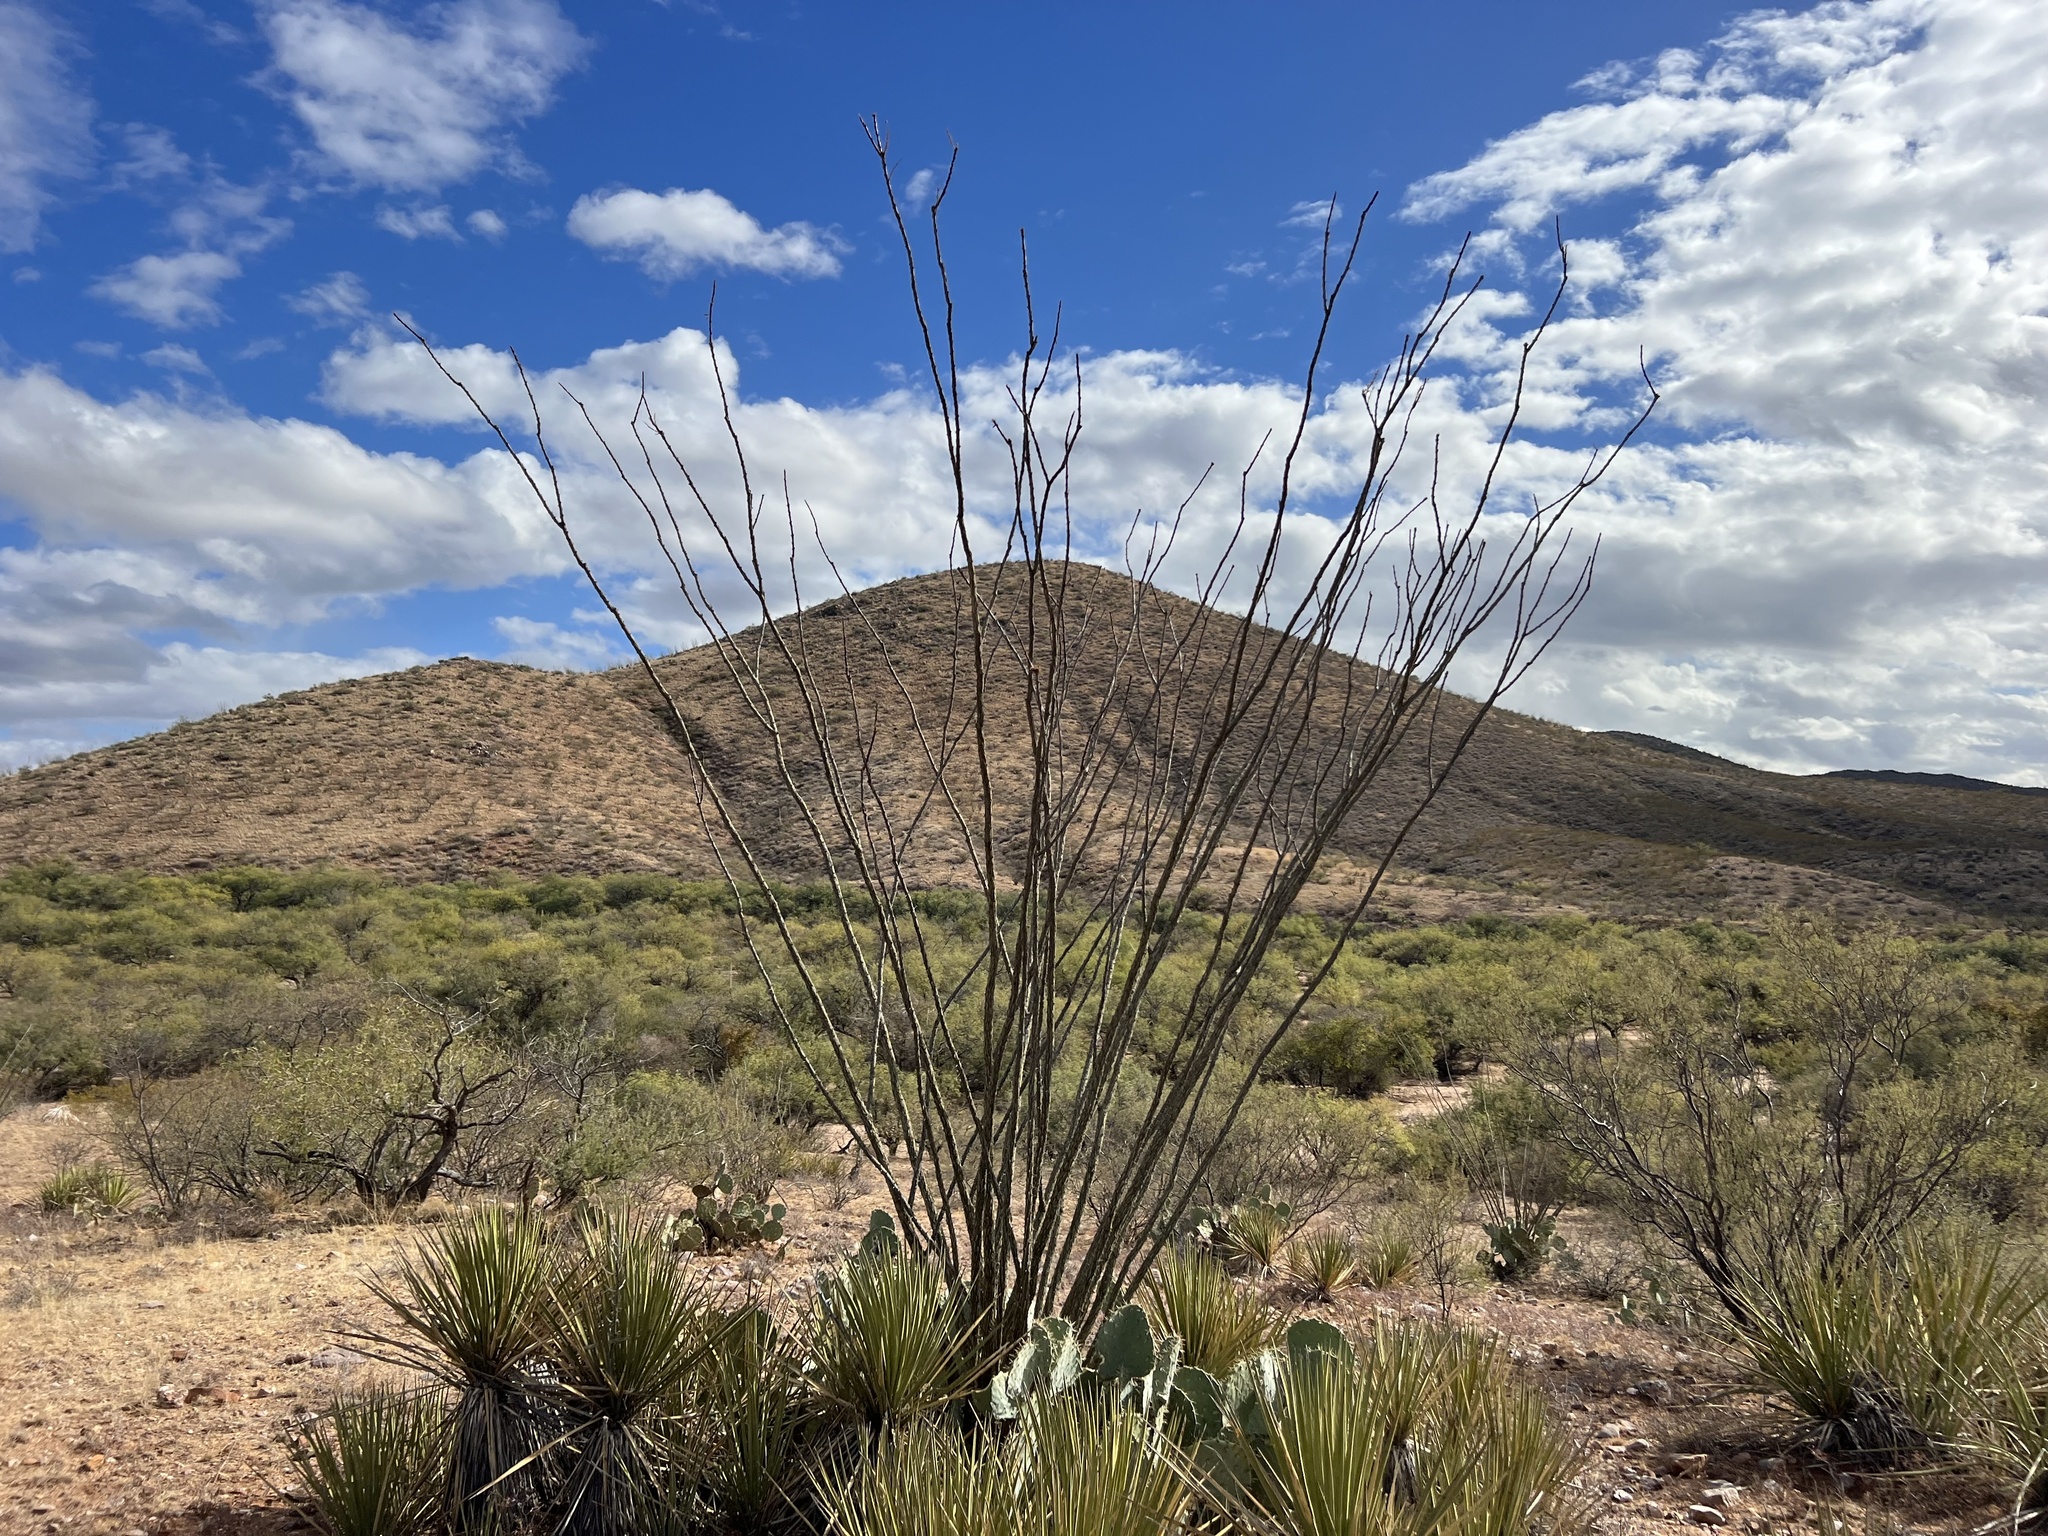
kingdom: Plantae
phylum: Tracheophyta
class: Magnoliopsida
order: Ericales
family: Fouquieriaceae
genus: Fouquieria
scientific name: Fouquieria splendens
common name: Vine-cactus
